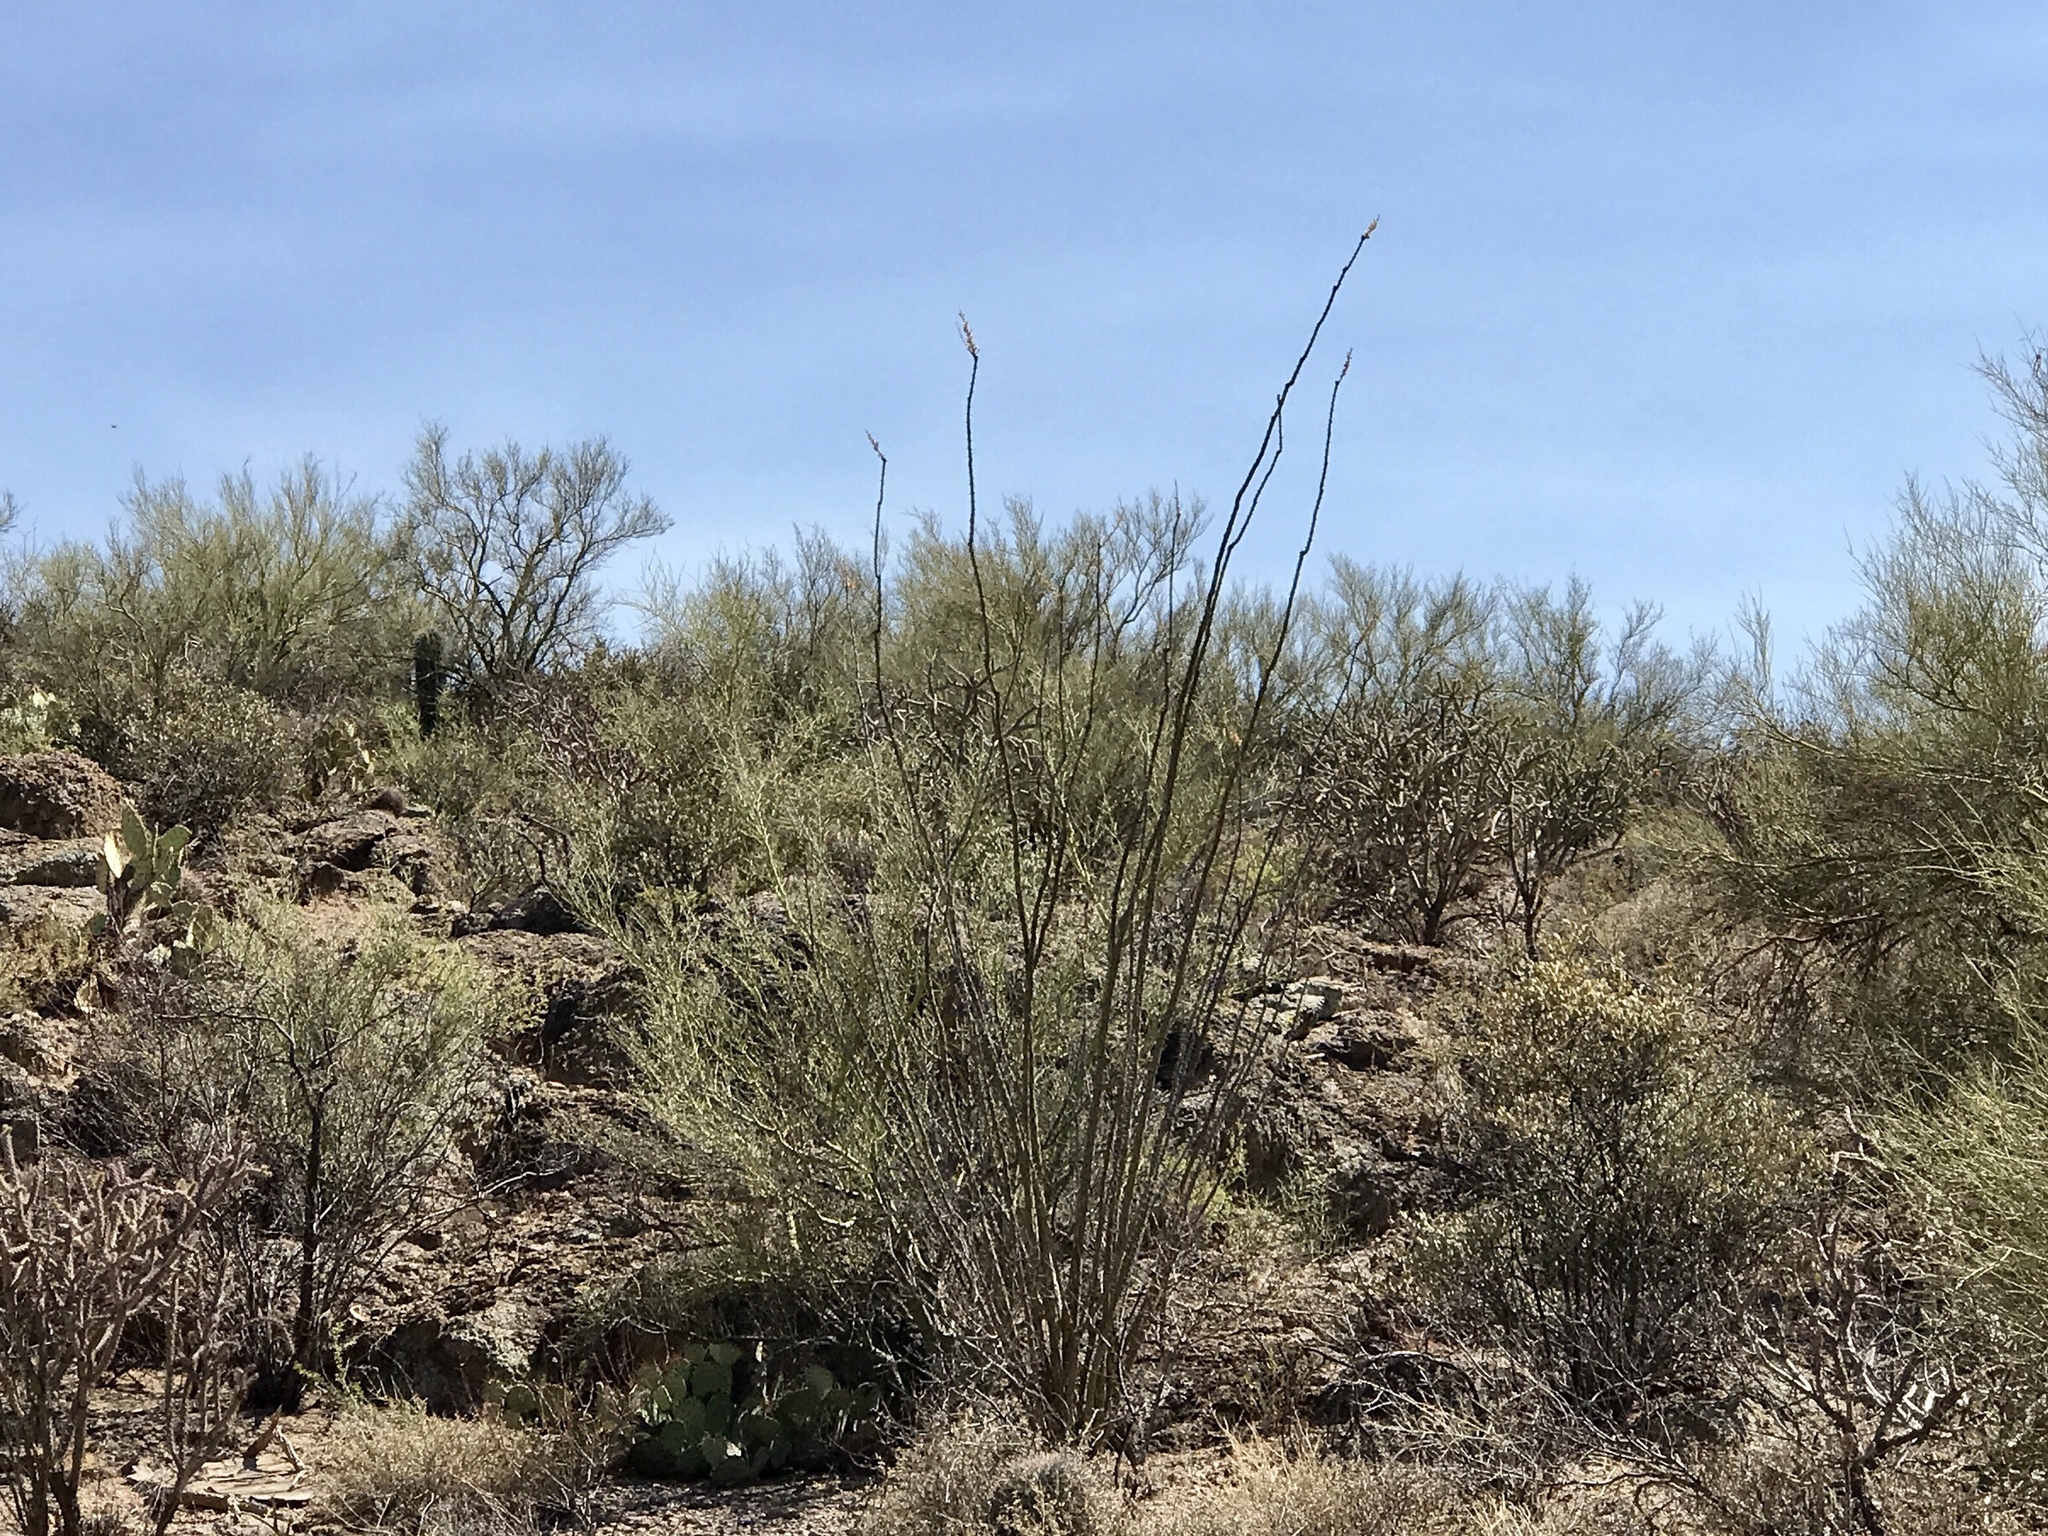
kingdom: Plantae
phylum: Tracheophyta
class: Magnoliopsida
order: Ericales
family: Fouquieriaceae
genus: Fouquieria
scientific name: Fouquieria splendens
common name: Vine-cactus
